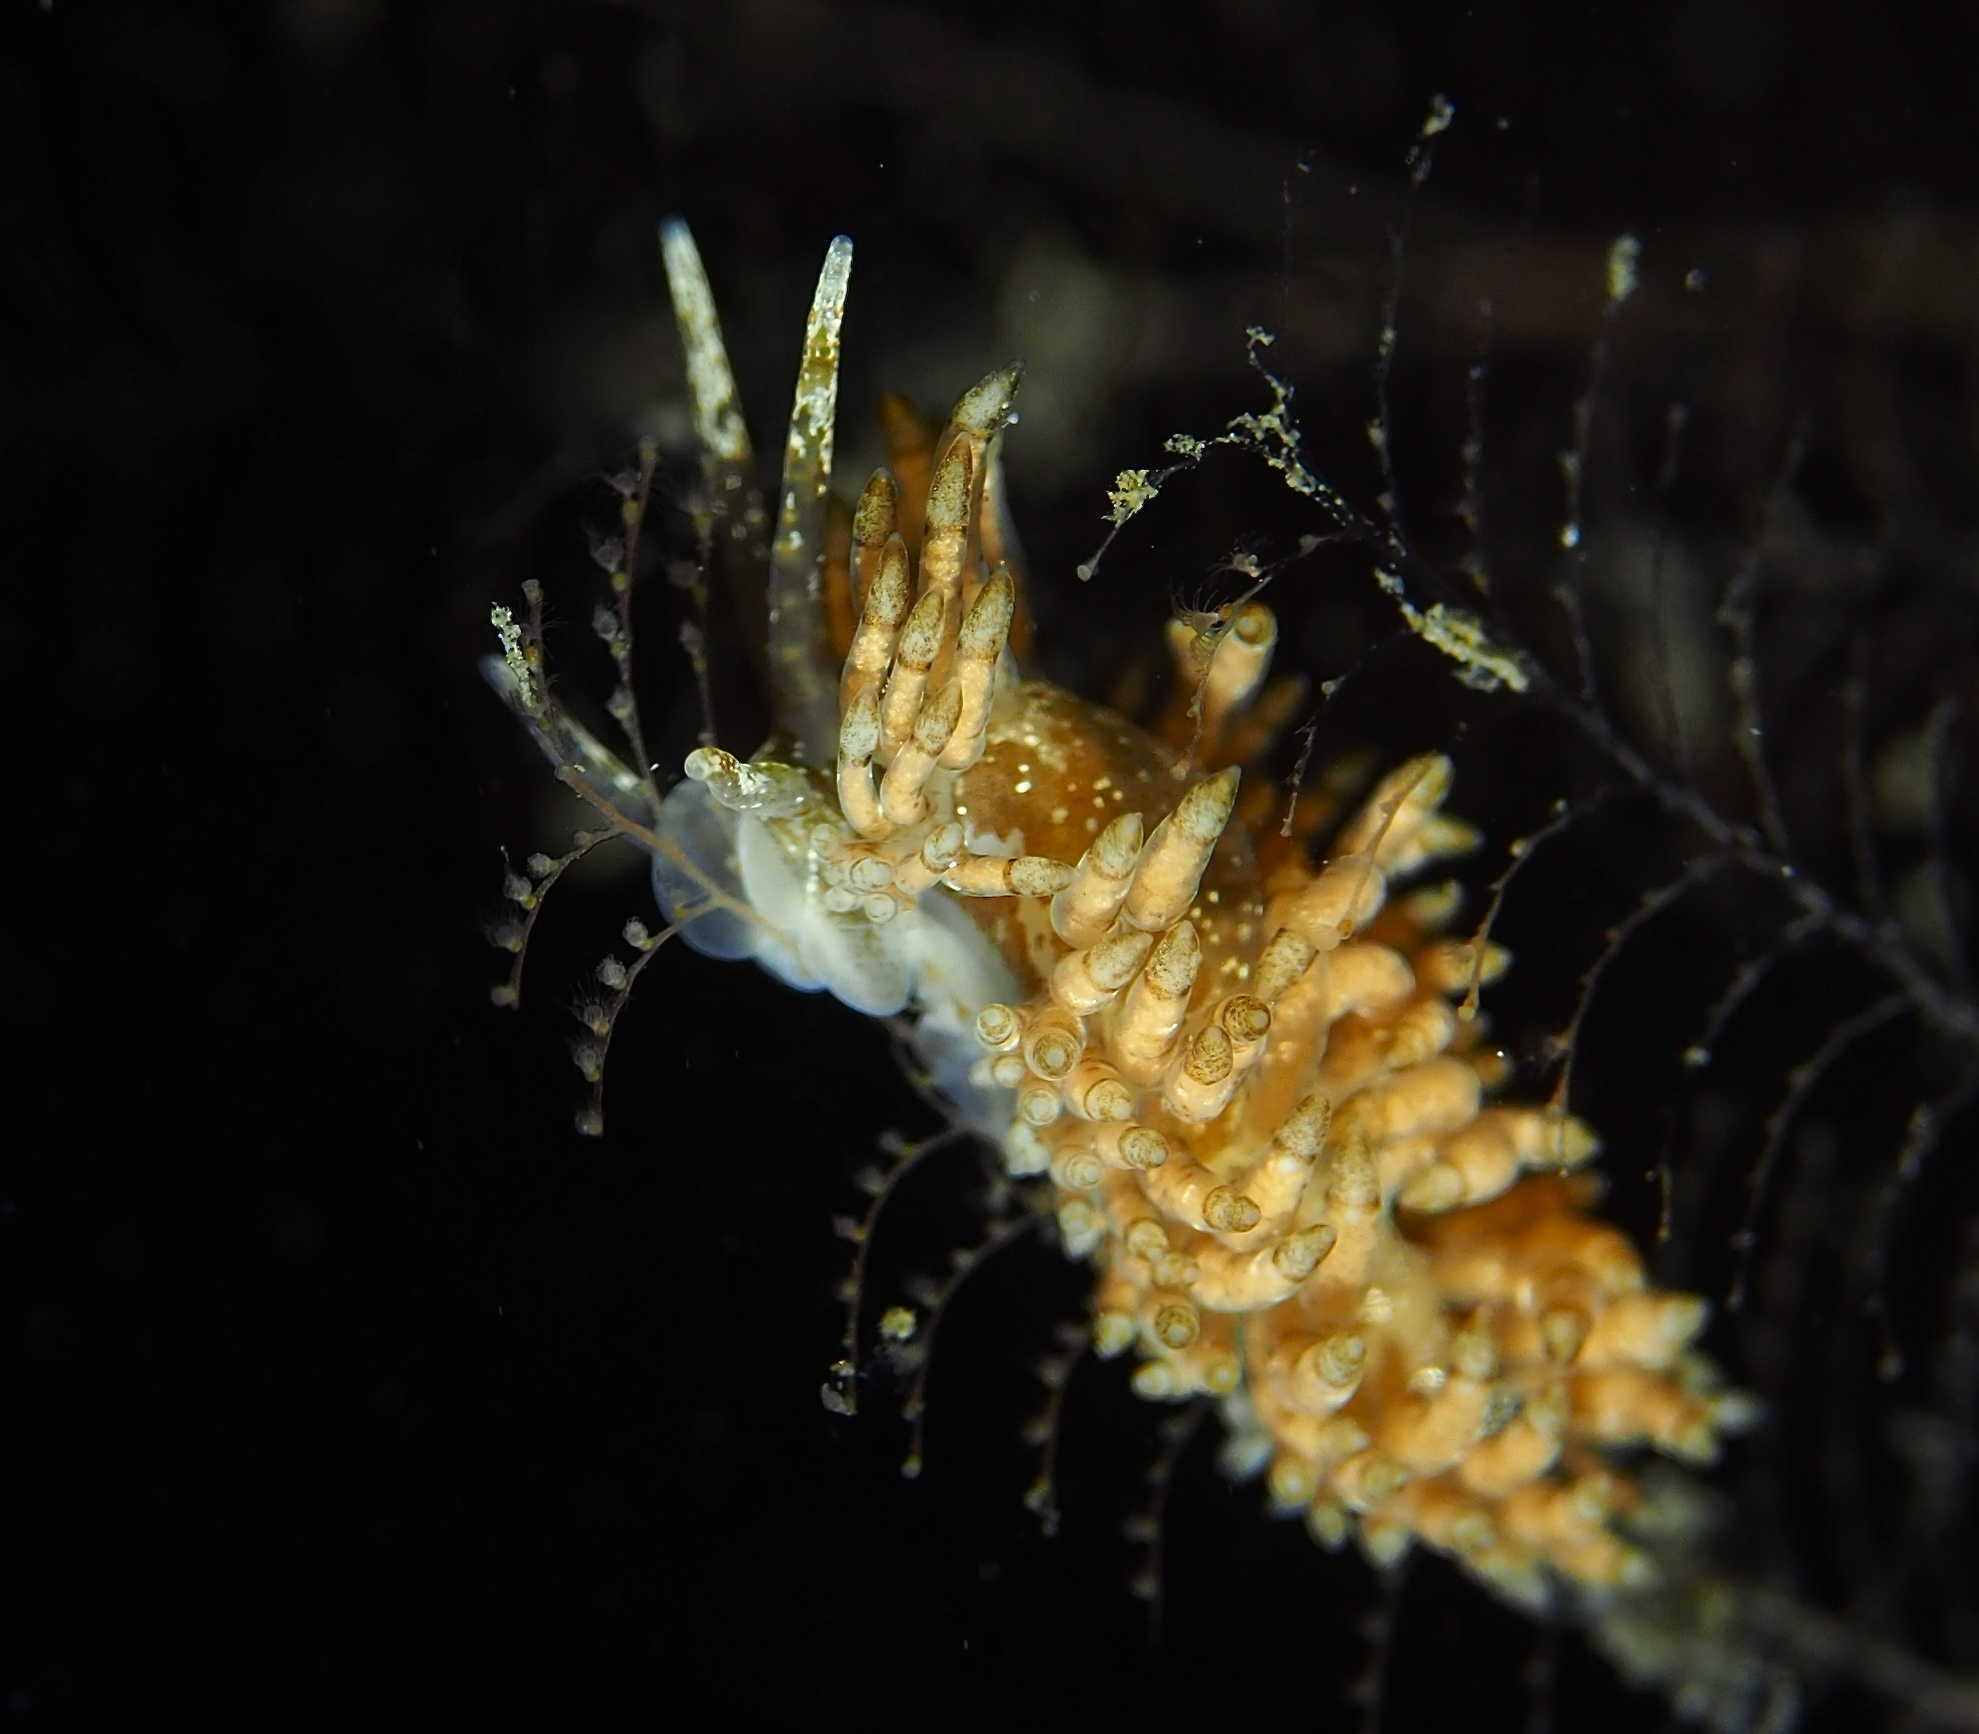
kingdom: Animalia
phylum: Mollusca
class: Gastropoda
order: Nudibranchia
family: Eubranchidae
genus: Eubranchus
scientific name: Eubranchus vittatus
